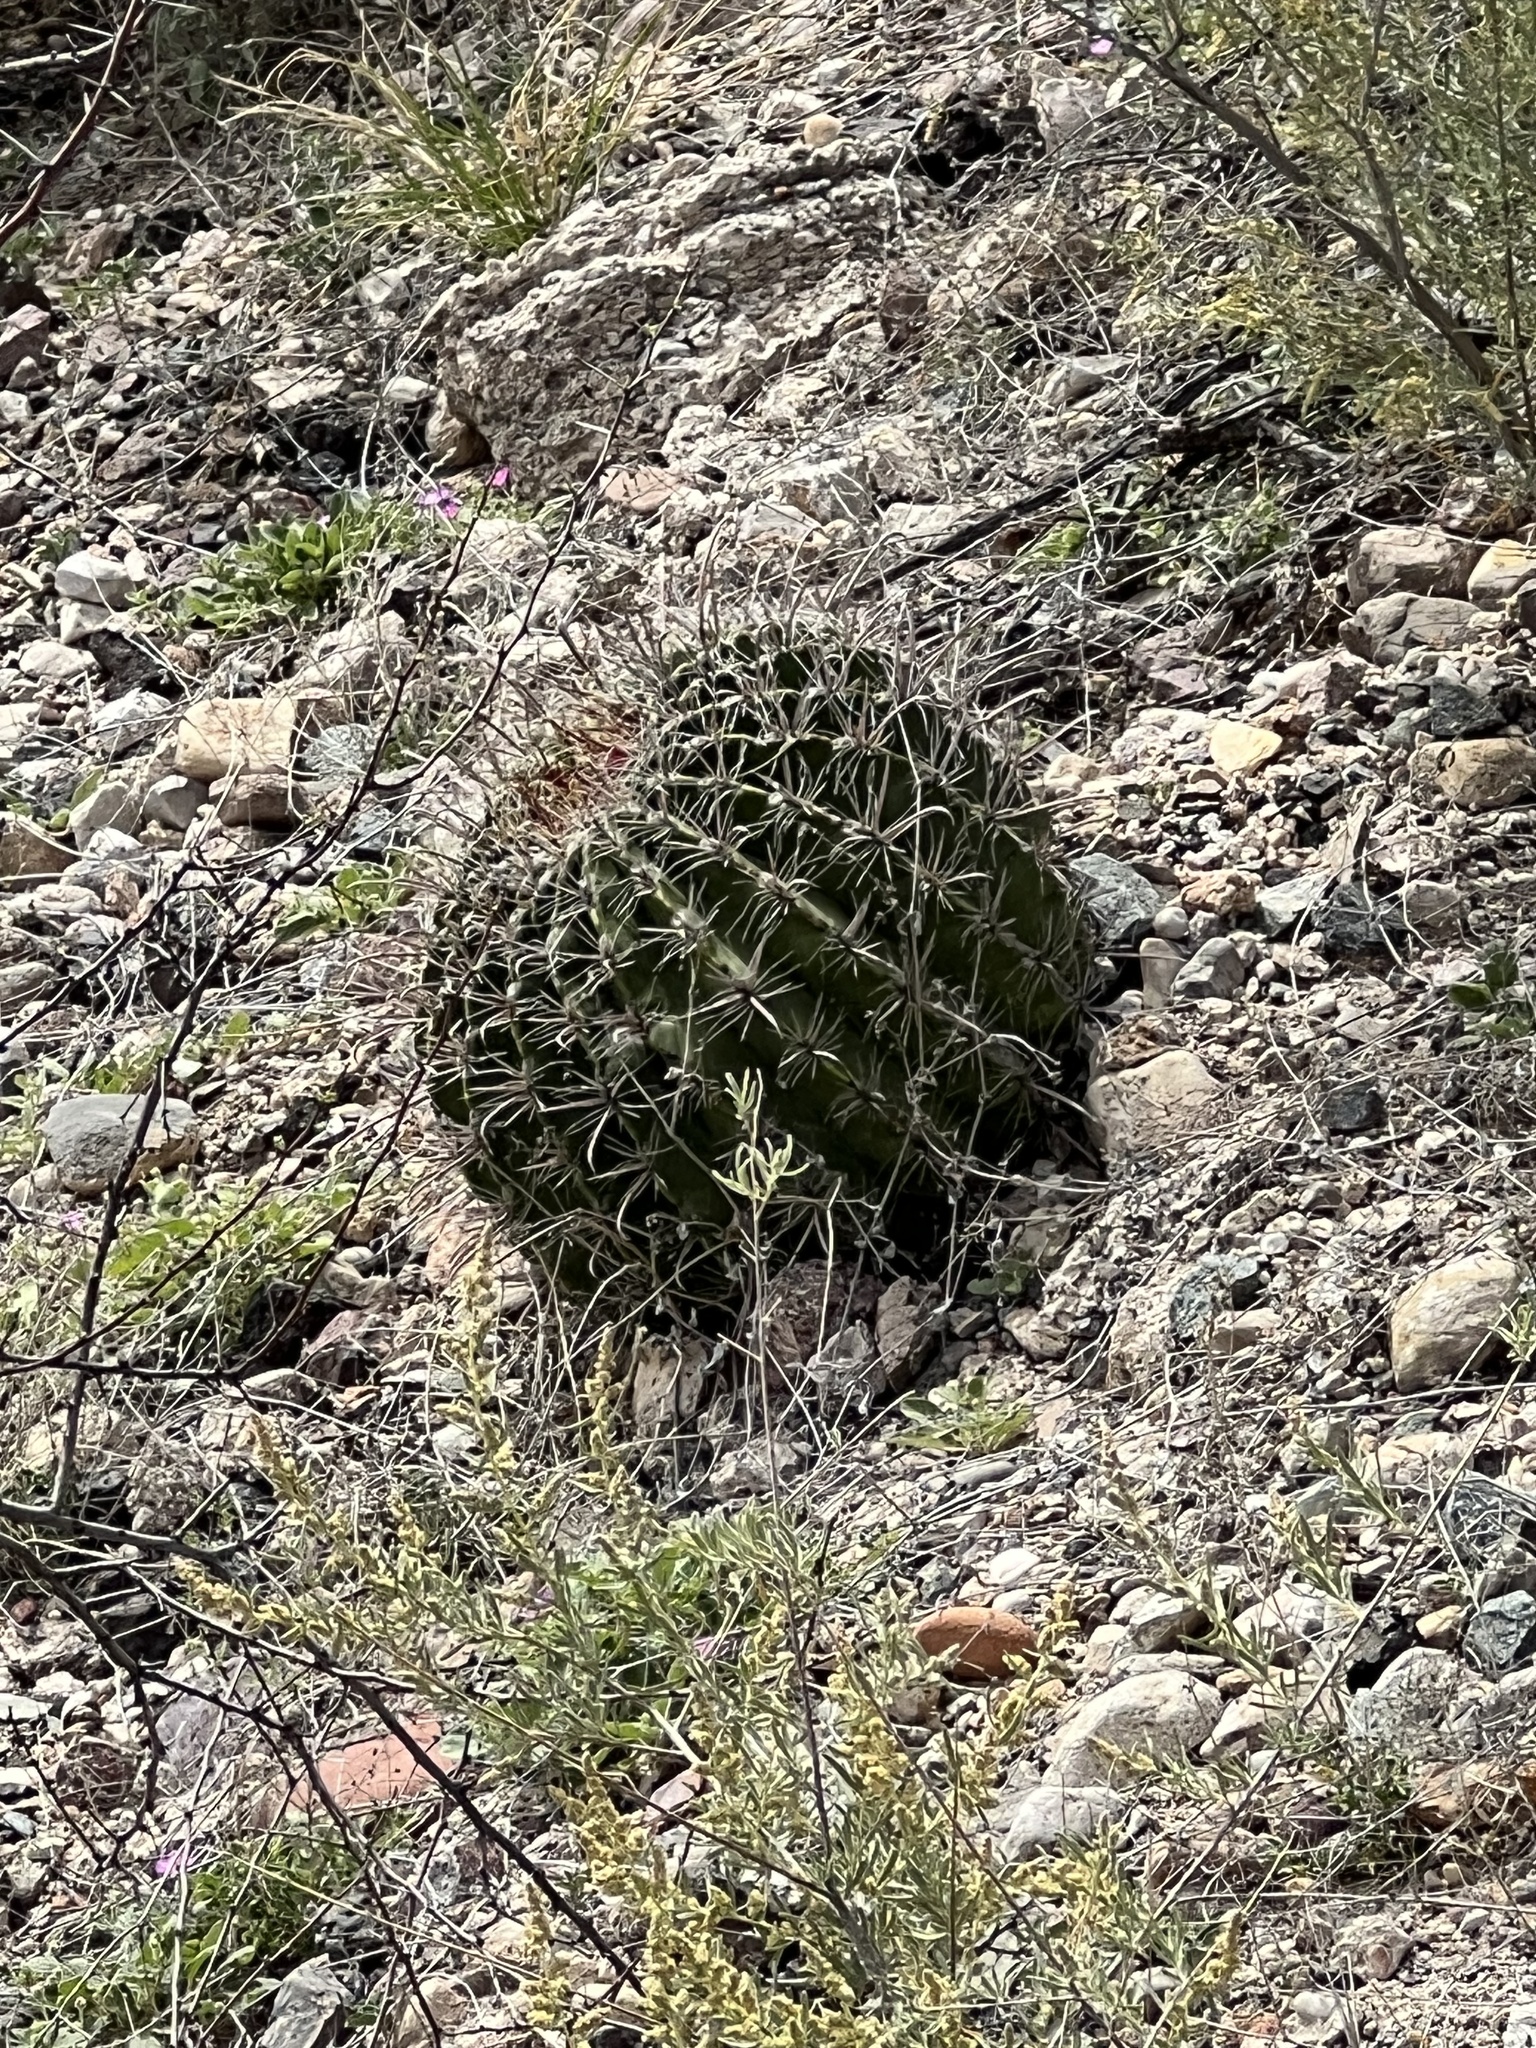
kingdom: Plantae
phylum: Tracheophyta
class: Magnoliopsida
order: Caryophyllales
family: Cactaceae
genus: Ferocactus
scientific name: Ferocactus wislizeni
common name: Candy barrel cactus
